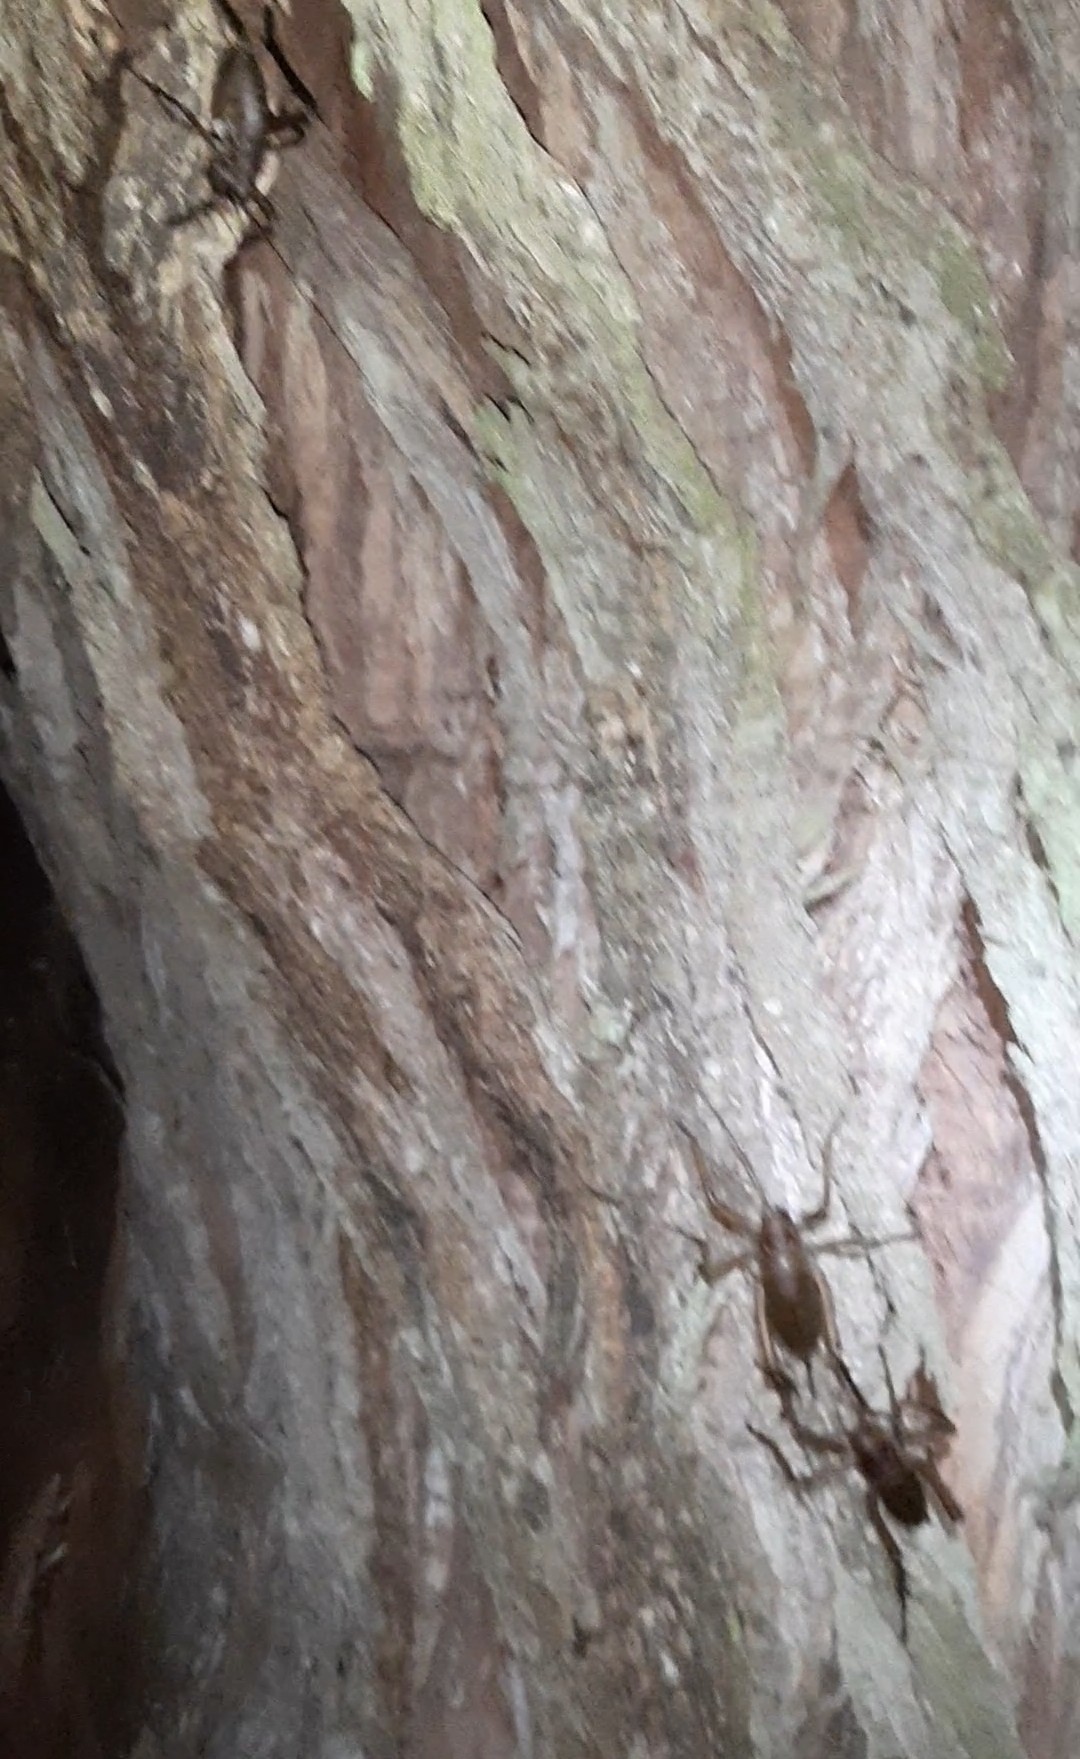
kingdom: Animalia
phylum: Arthropoda
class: Insecta
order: Orthoptera
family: Anostostomatidae
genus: Deinacrida
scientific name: Deinacrida heteracantha
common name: Wetapunga
